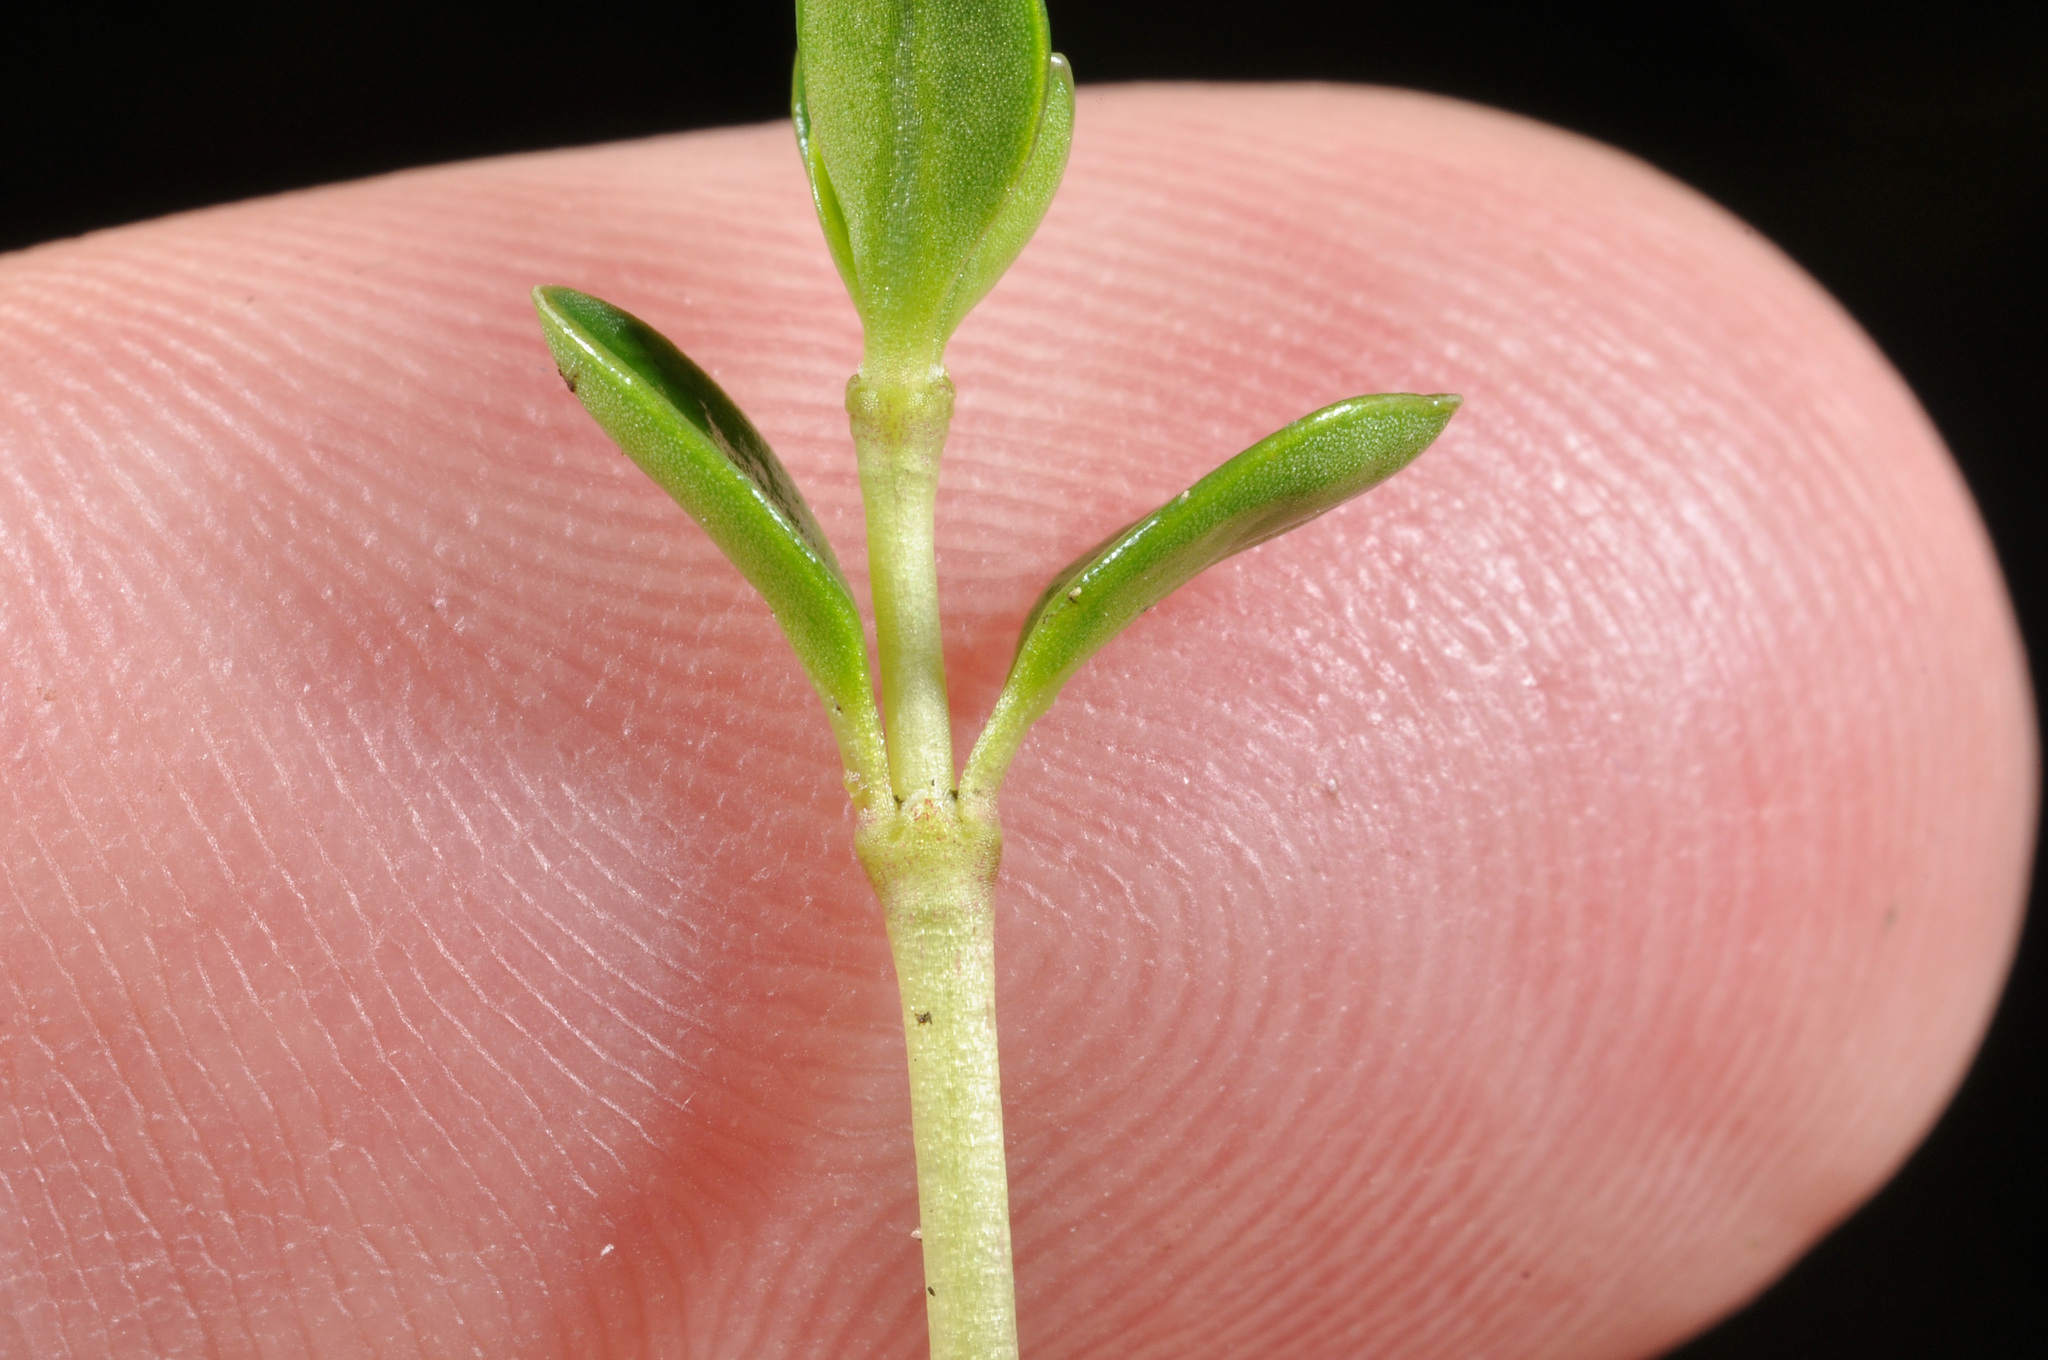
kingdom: Plantae
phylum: Tracheophyta
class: Magnoliopsida
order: Gentianales
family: Rubiaceae
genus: Nertera
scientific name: Nertera granadensis
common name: Beadplant
